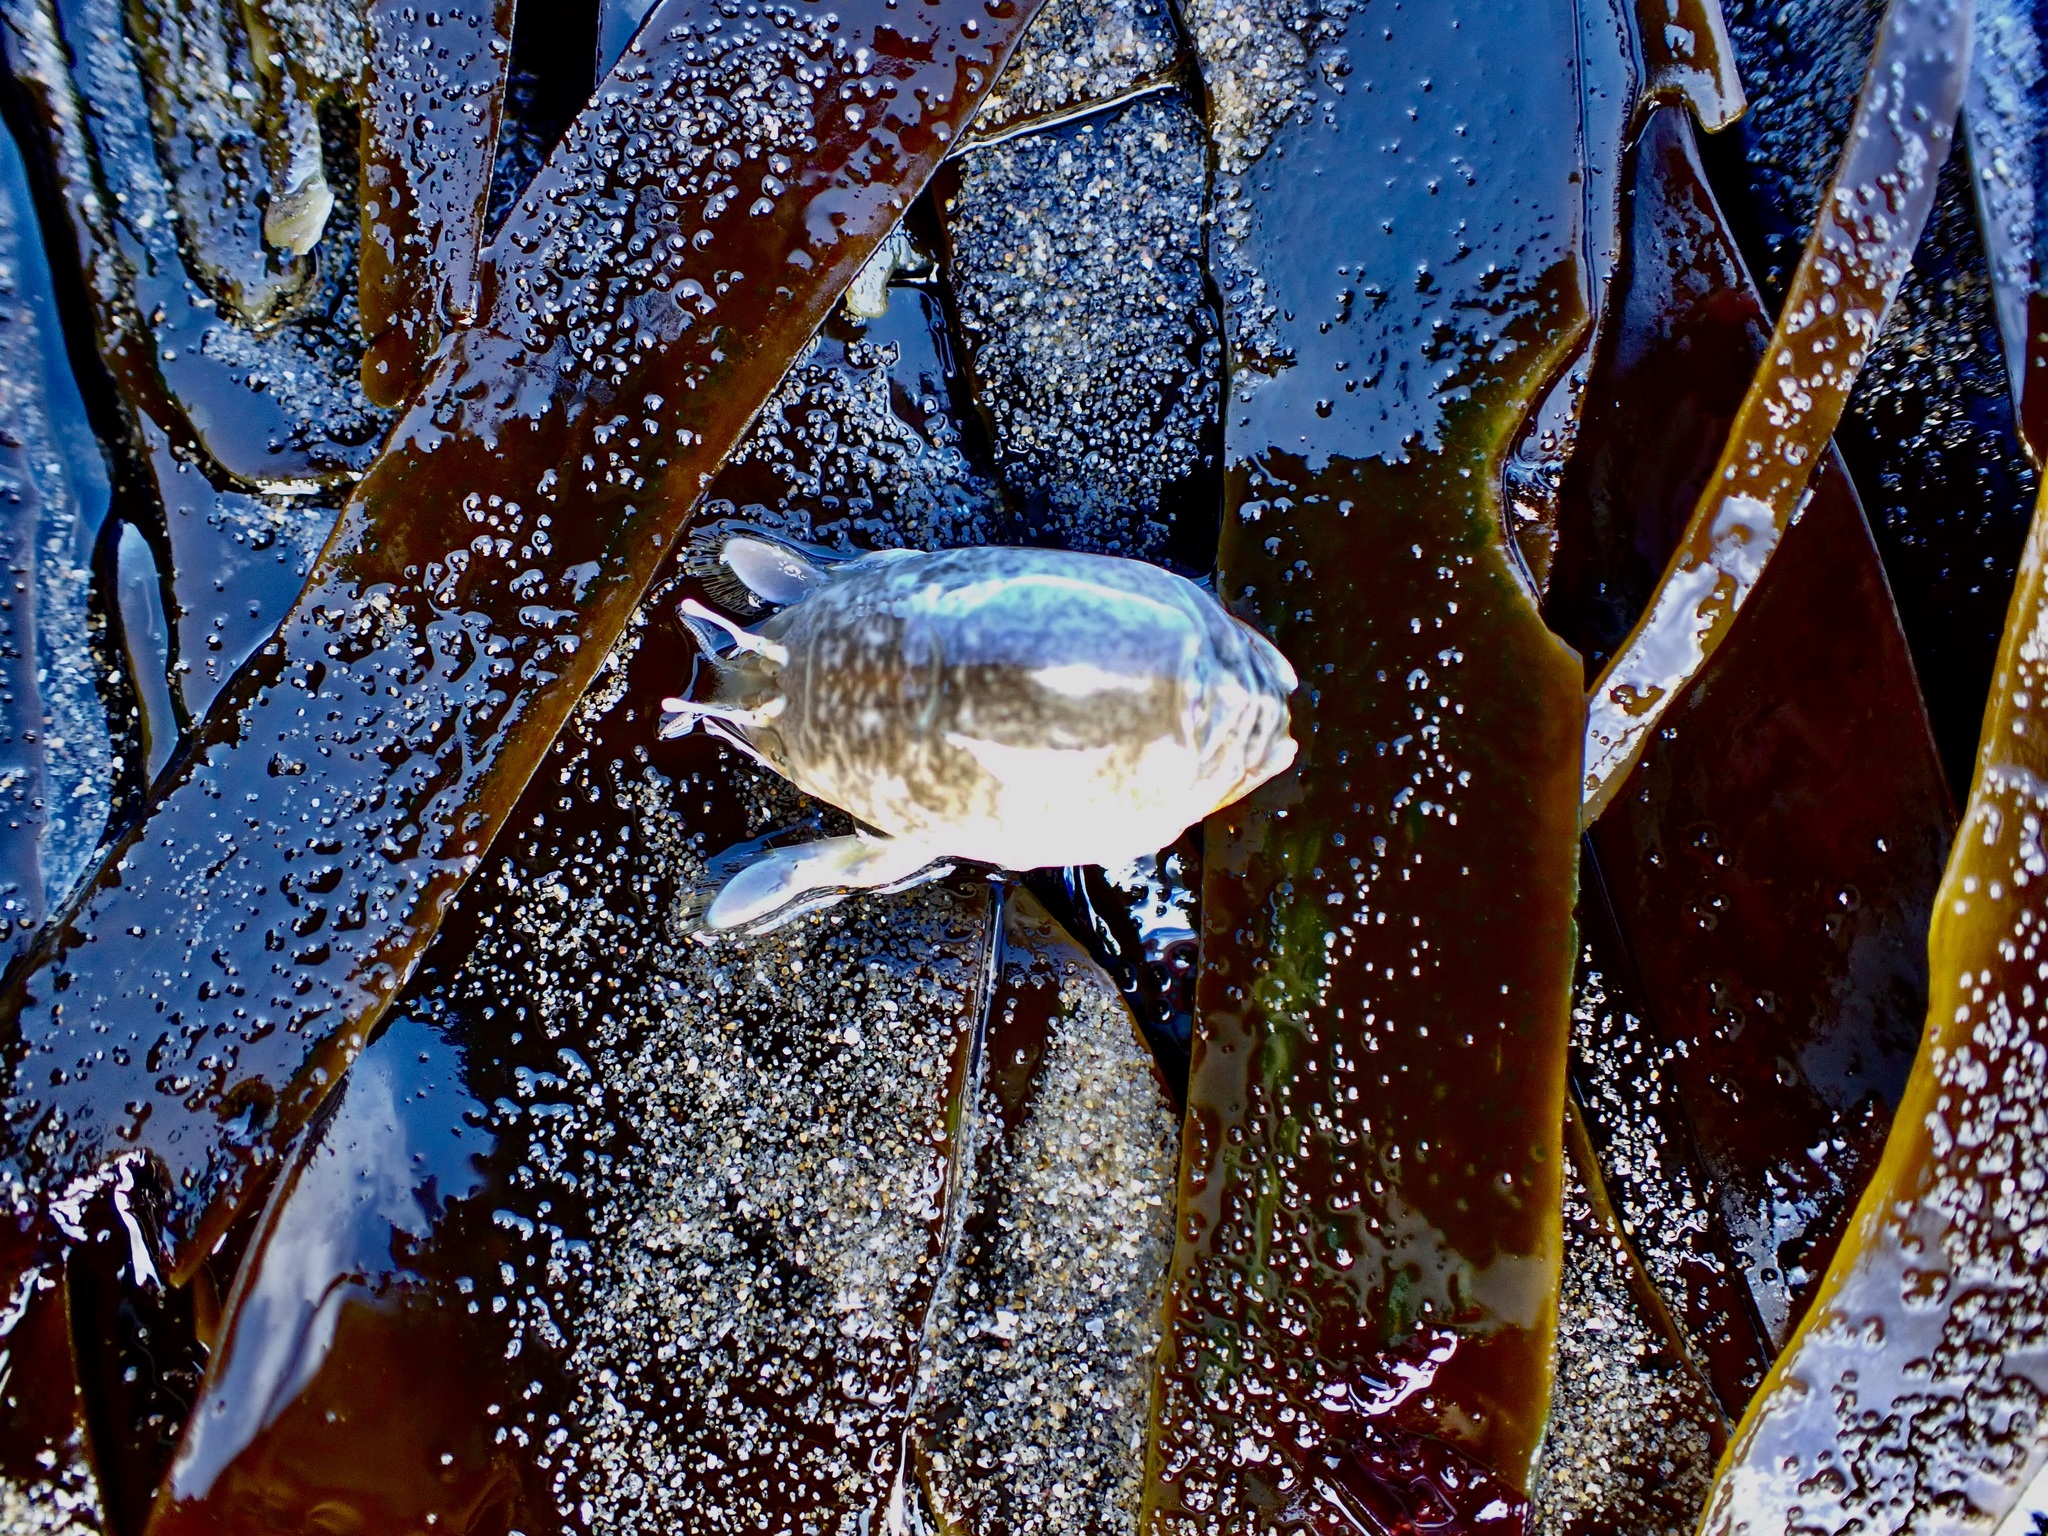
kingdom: Animalia
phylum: Arthropoda
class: Malacostraca
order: Decapoda
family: Hippidae
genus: Emerita
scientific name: Emerita analoga
